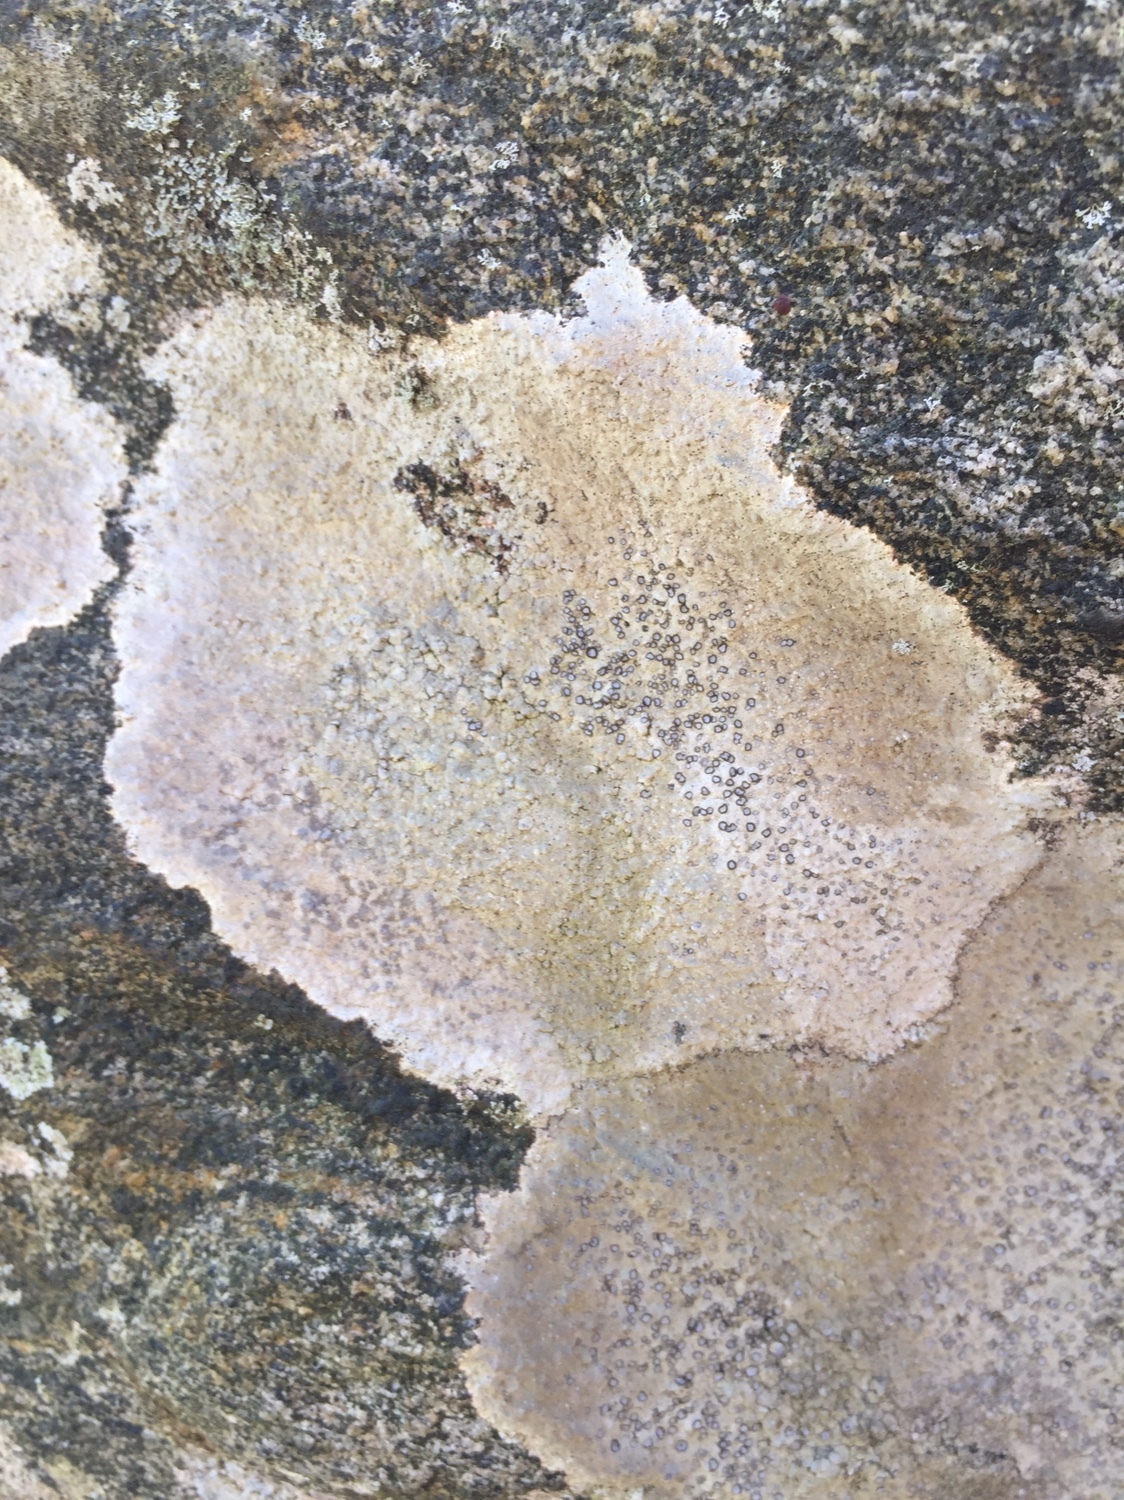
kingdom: Fungi
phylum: Ascomycota
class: Lecanoromycetes
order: Lecideales
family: Lecideaceae
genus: Porpidia
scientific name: Porpidia albocaerulescens
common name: Smokey-eyed boulder lichen
